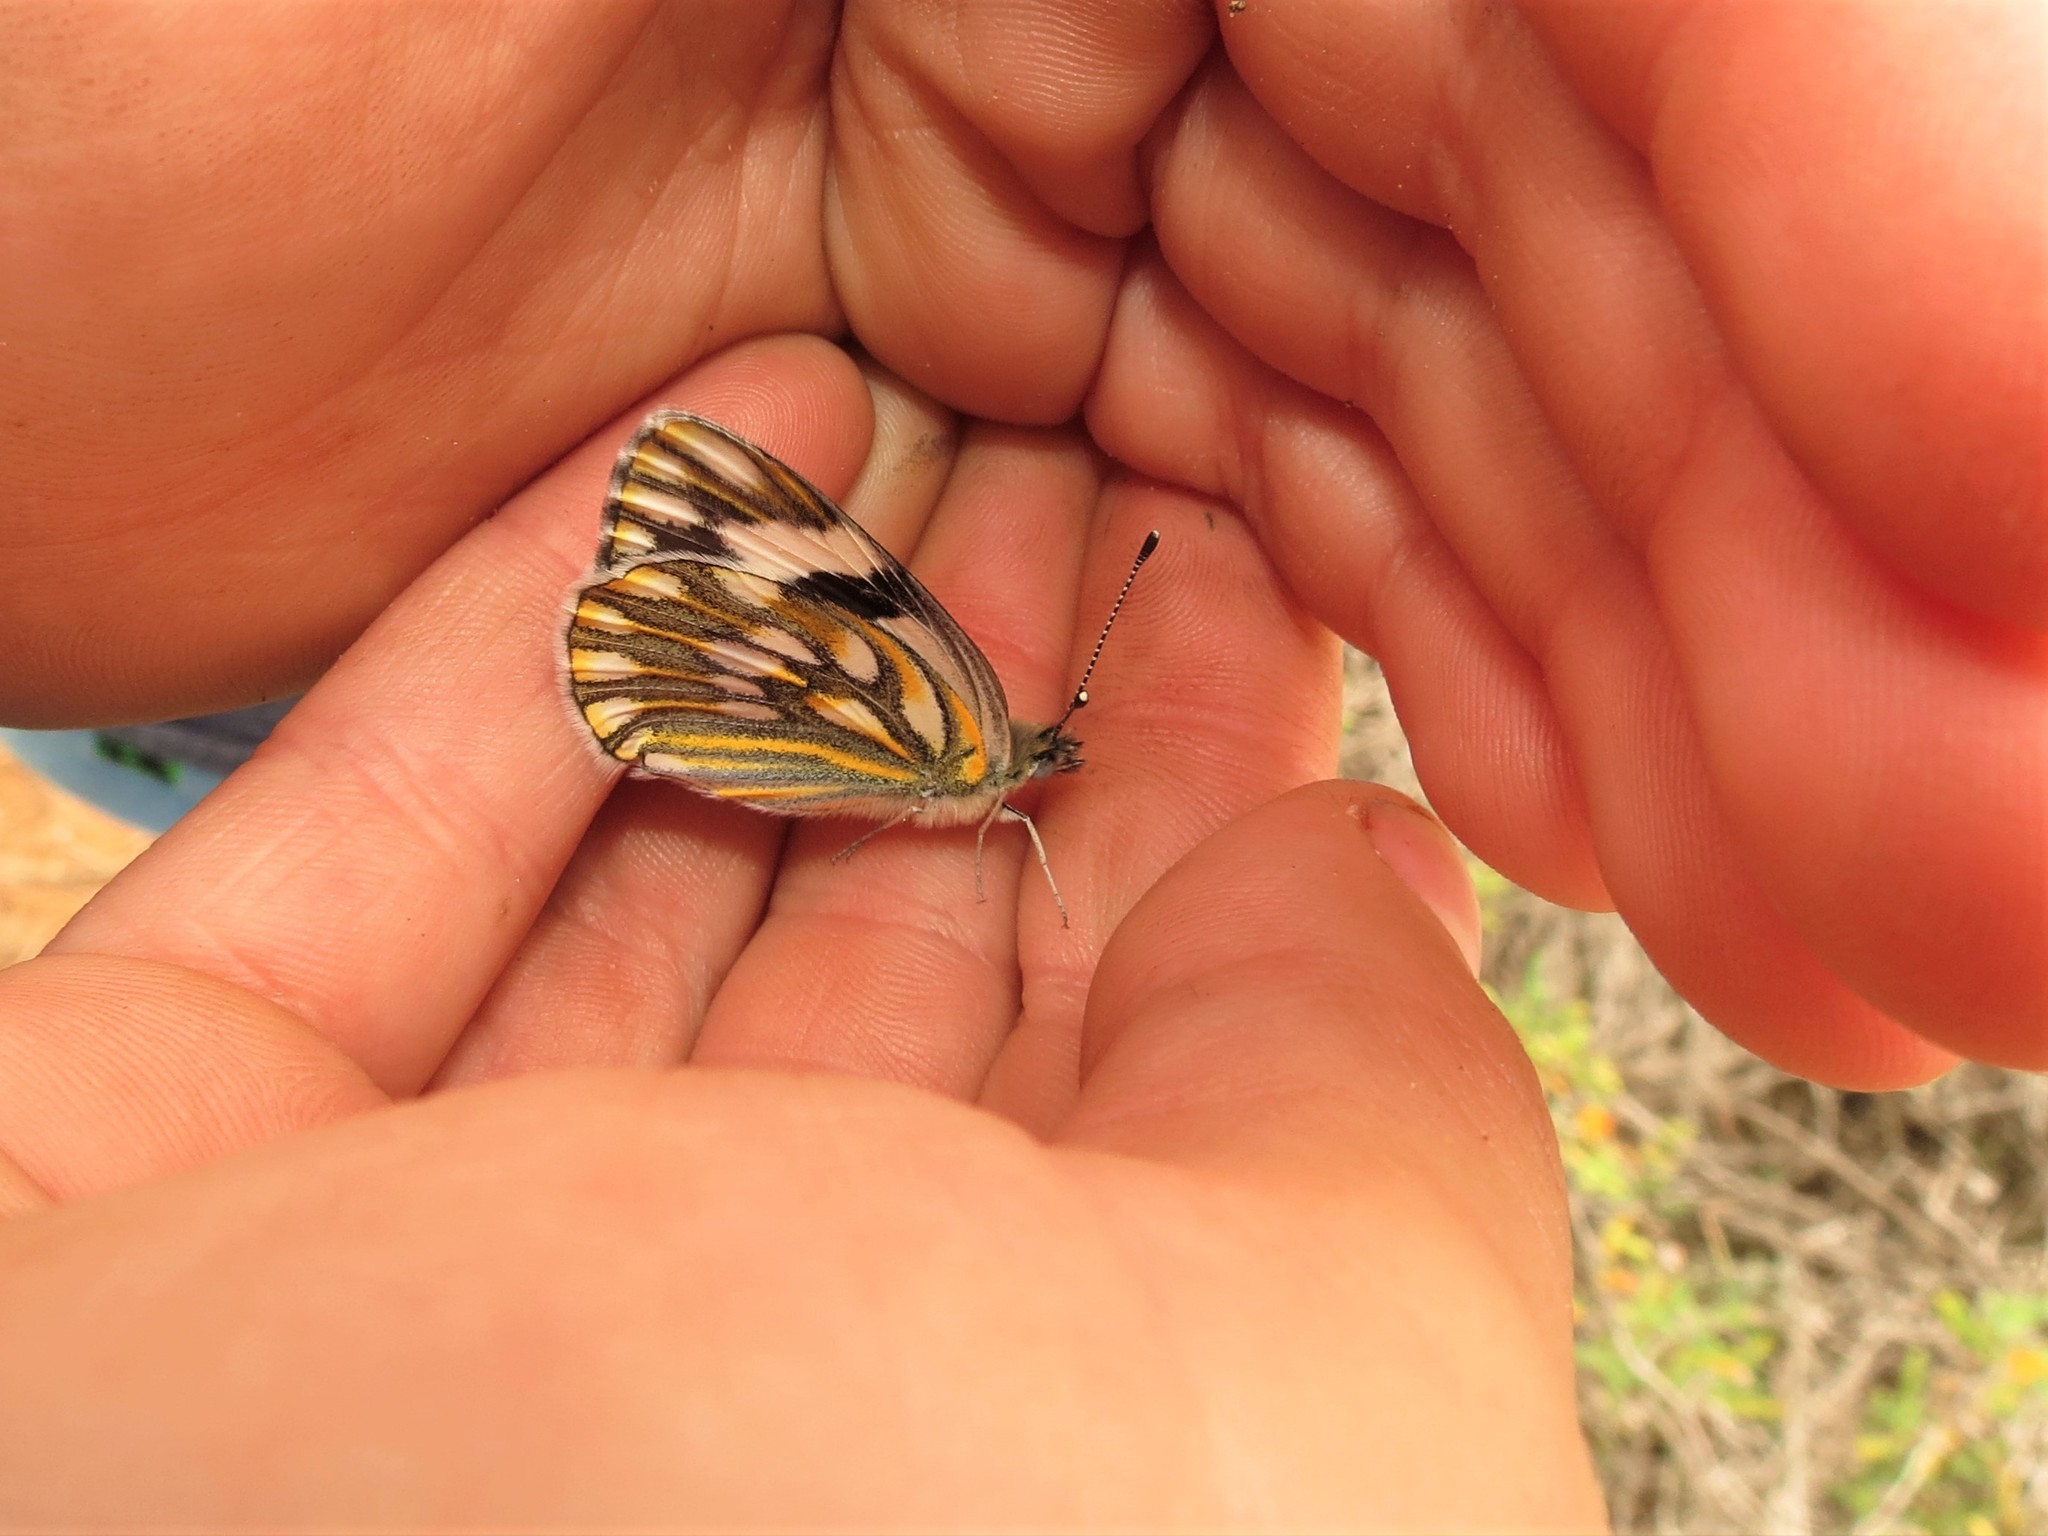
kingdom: Animalia
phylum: Arthropoda
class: Insecta
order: Lepidoptera
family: Pieridae
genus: Pontia
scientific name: Pontia helice
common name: Meadow white
